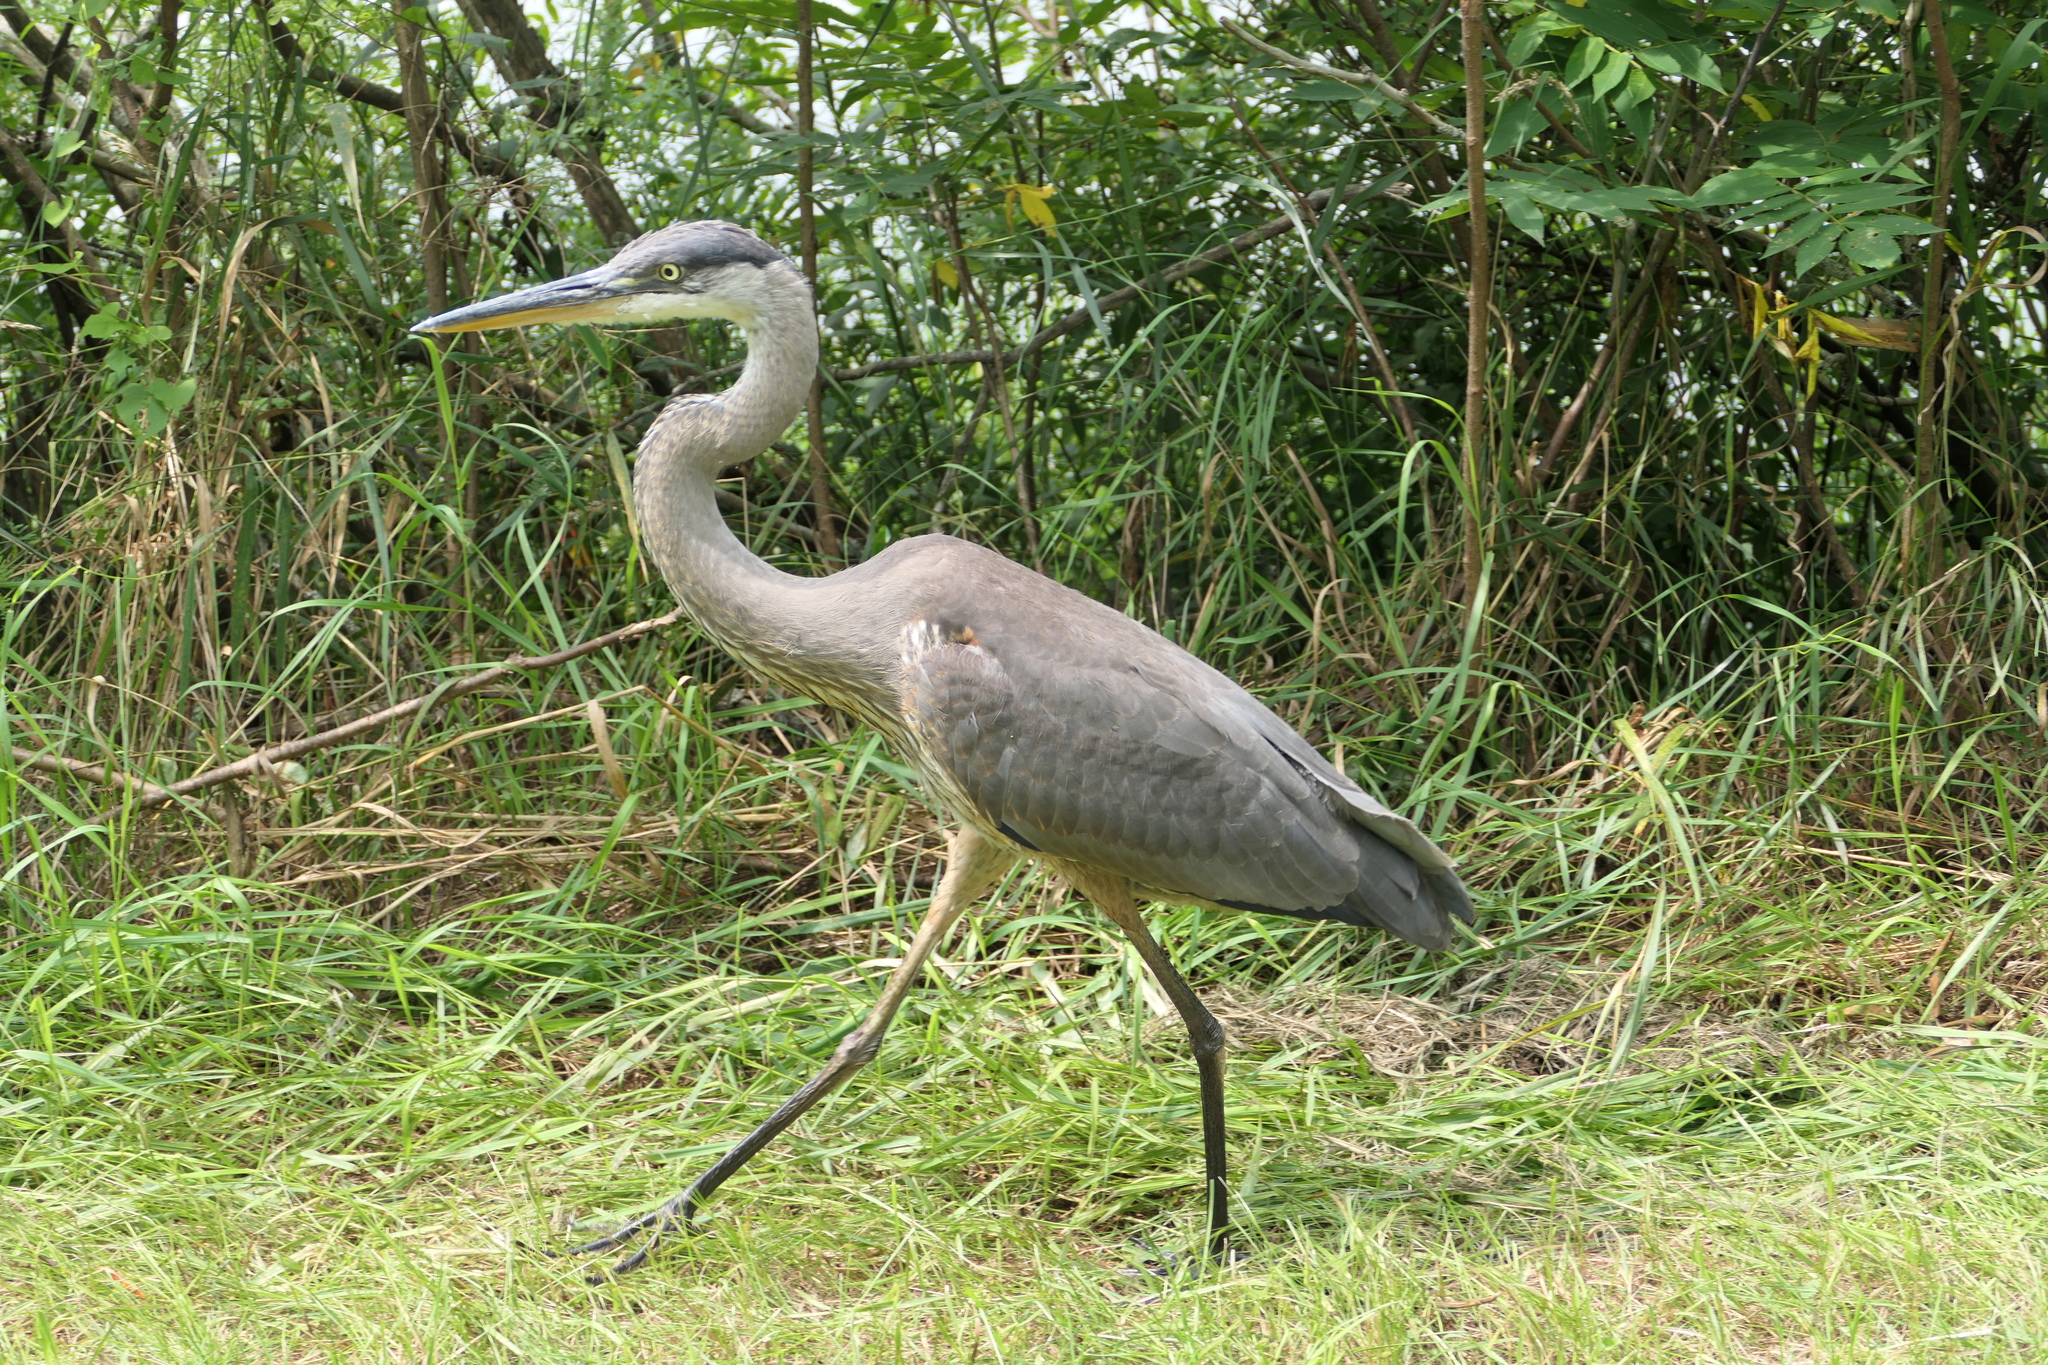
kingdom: Animalia
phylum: Chordata
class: Aves
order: Pelecaniformes
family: Ardeidae
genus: Ardea
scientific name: Ardea herodias
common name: Great blue heron
